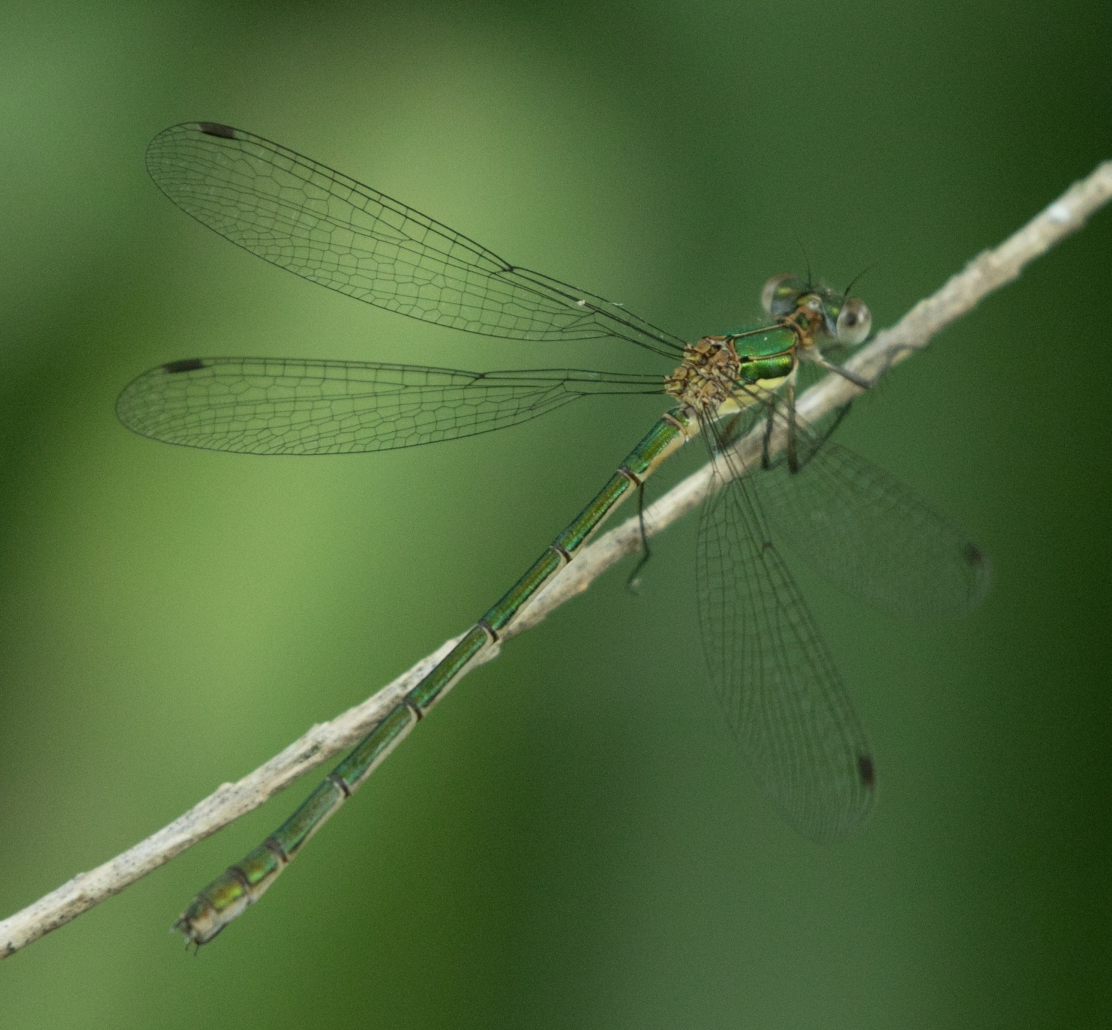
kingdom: Animalia
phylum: Arthropoda
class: Insecta
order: Odonata
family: Lestidae
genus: Lestes
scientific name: Lestes sponsa
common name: Common spreadwing
